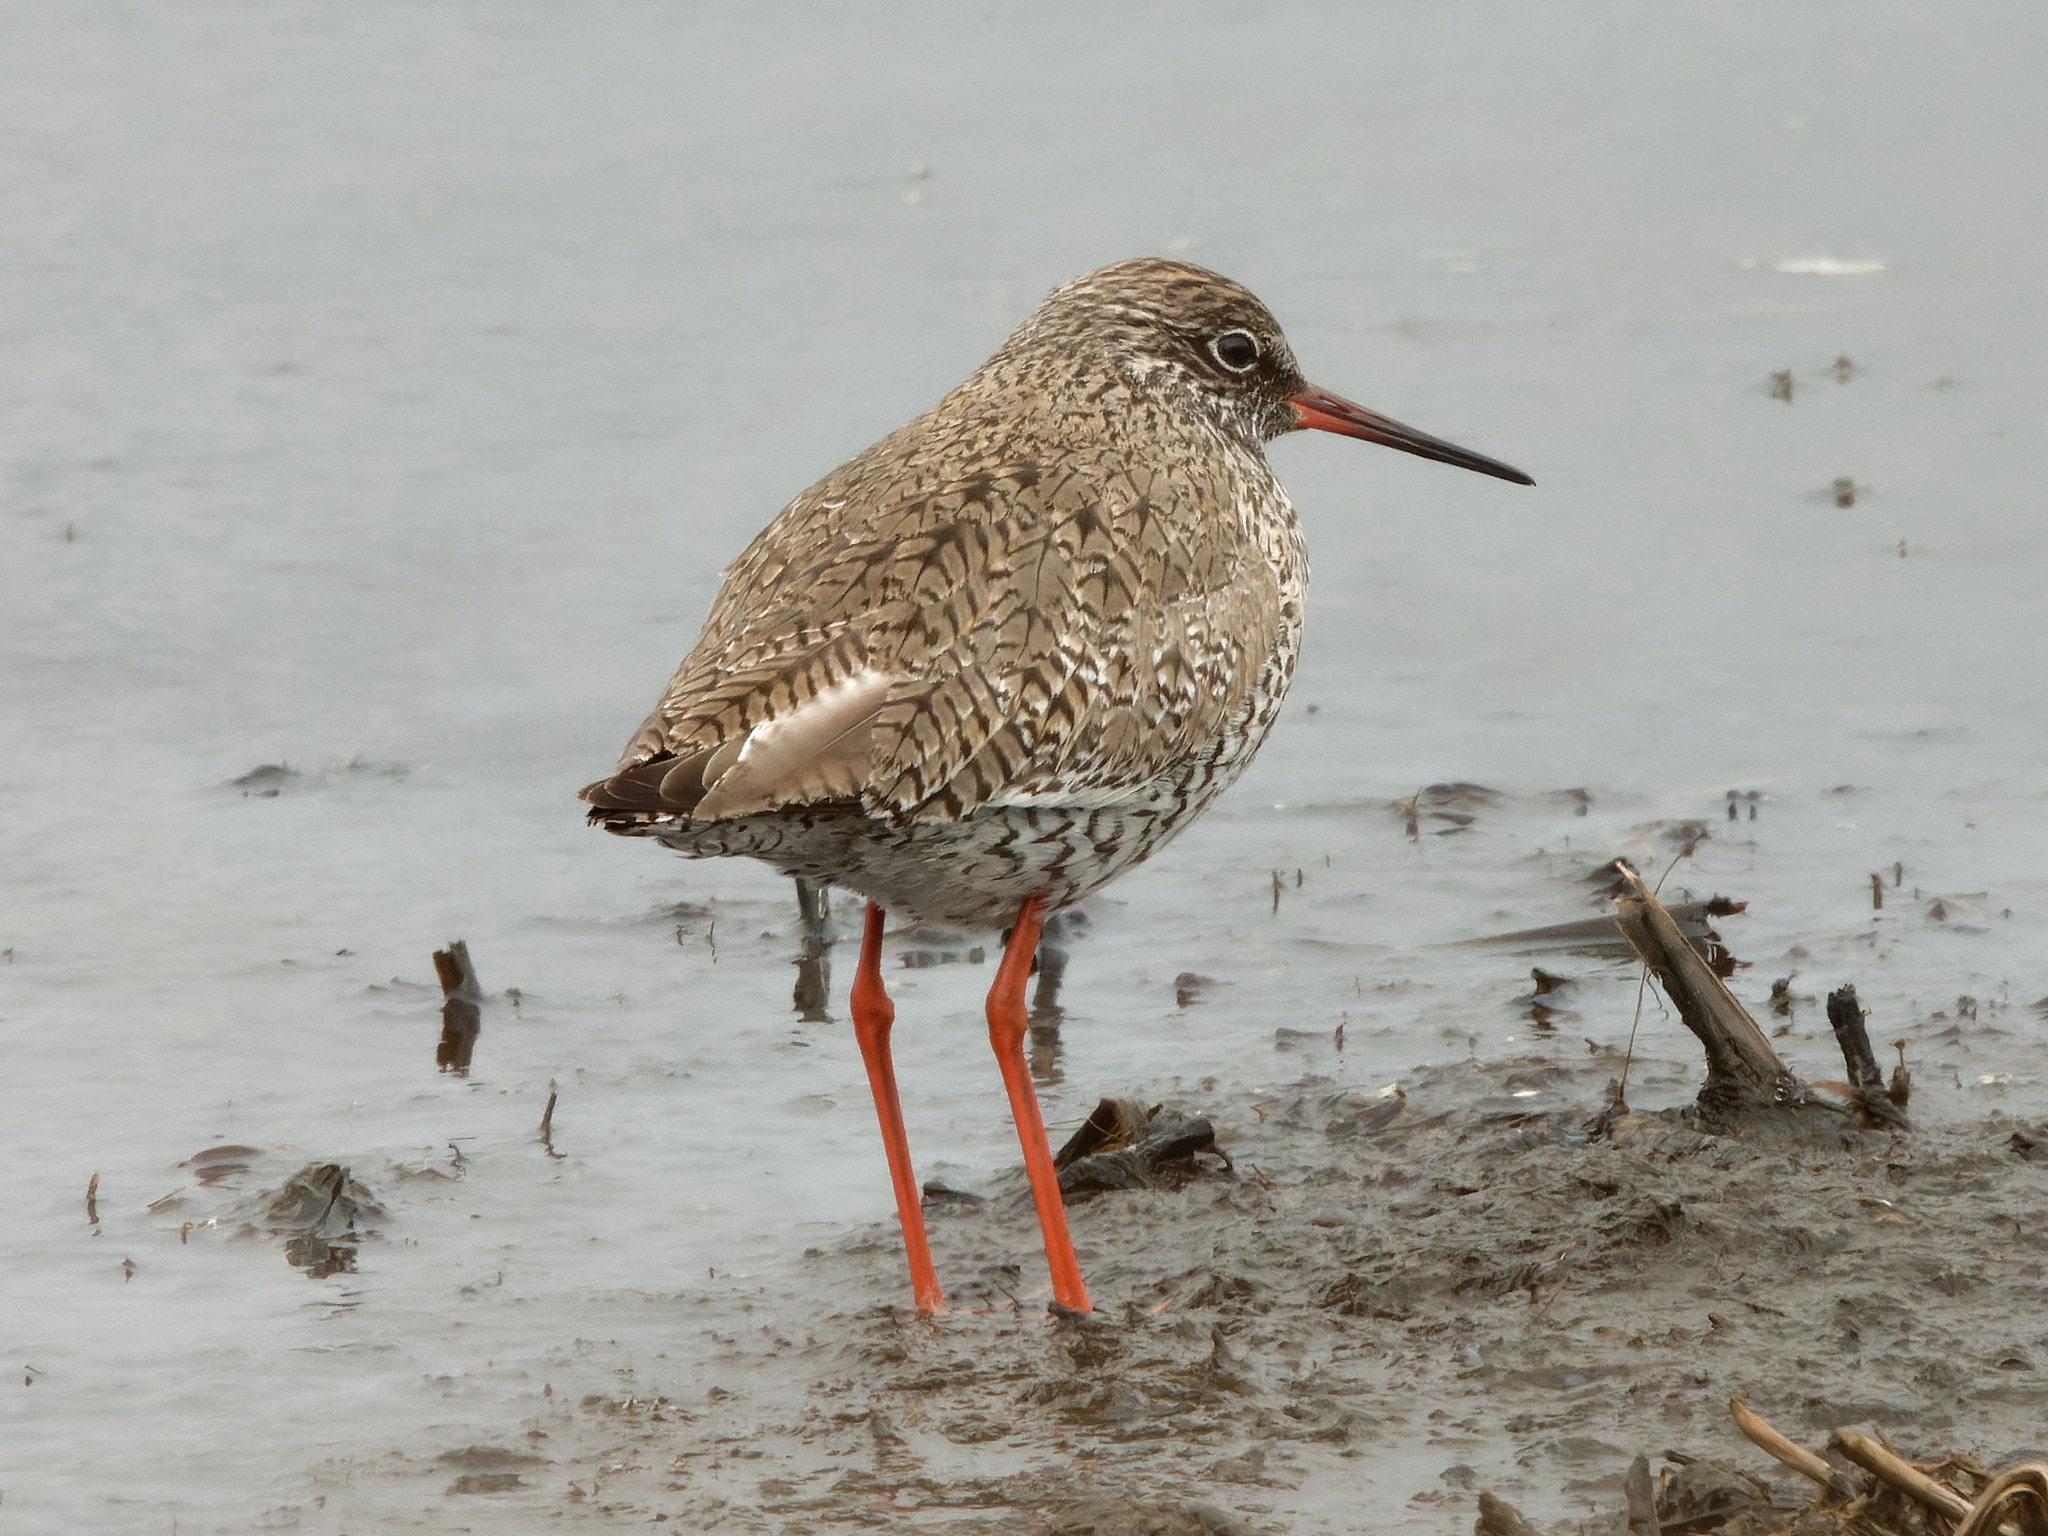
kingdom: Animalia
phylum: Chordata
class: Aves
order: Charadriiformes
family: Scolopacidae
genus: Tringa
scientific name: Tringa totanus
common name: Common redshank
